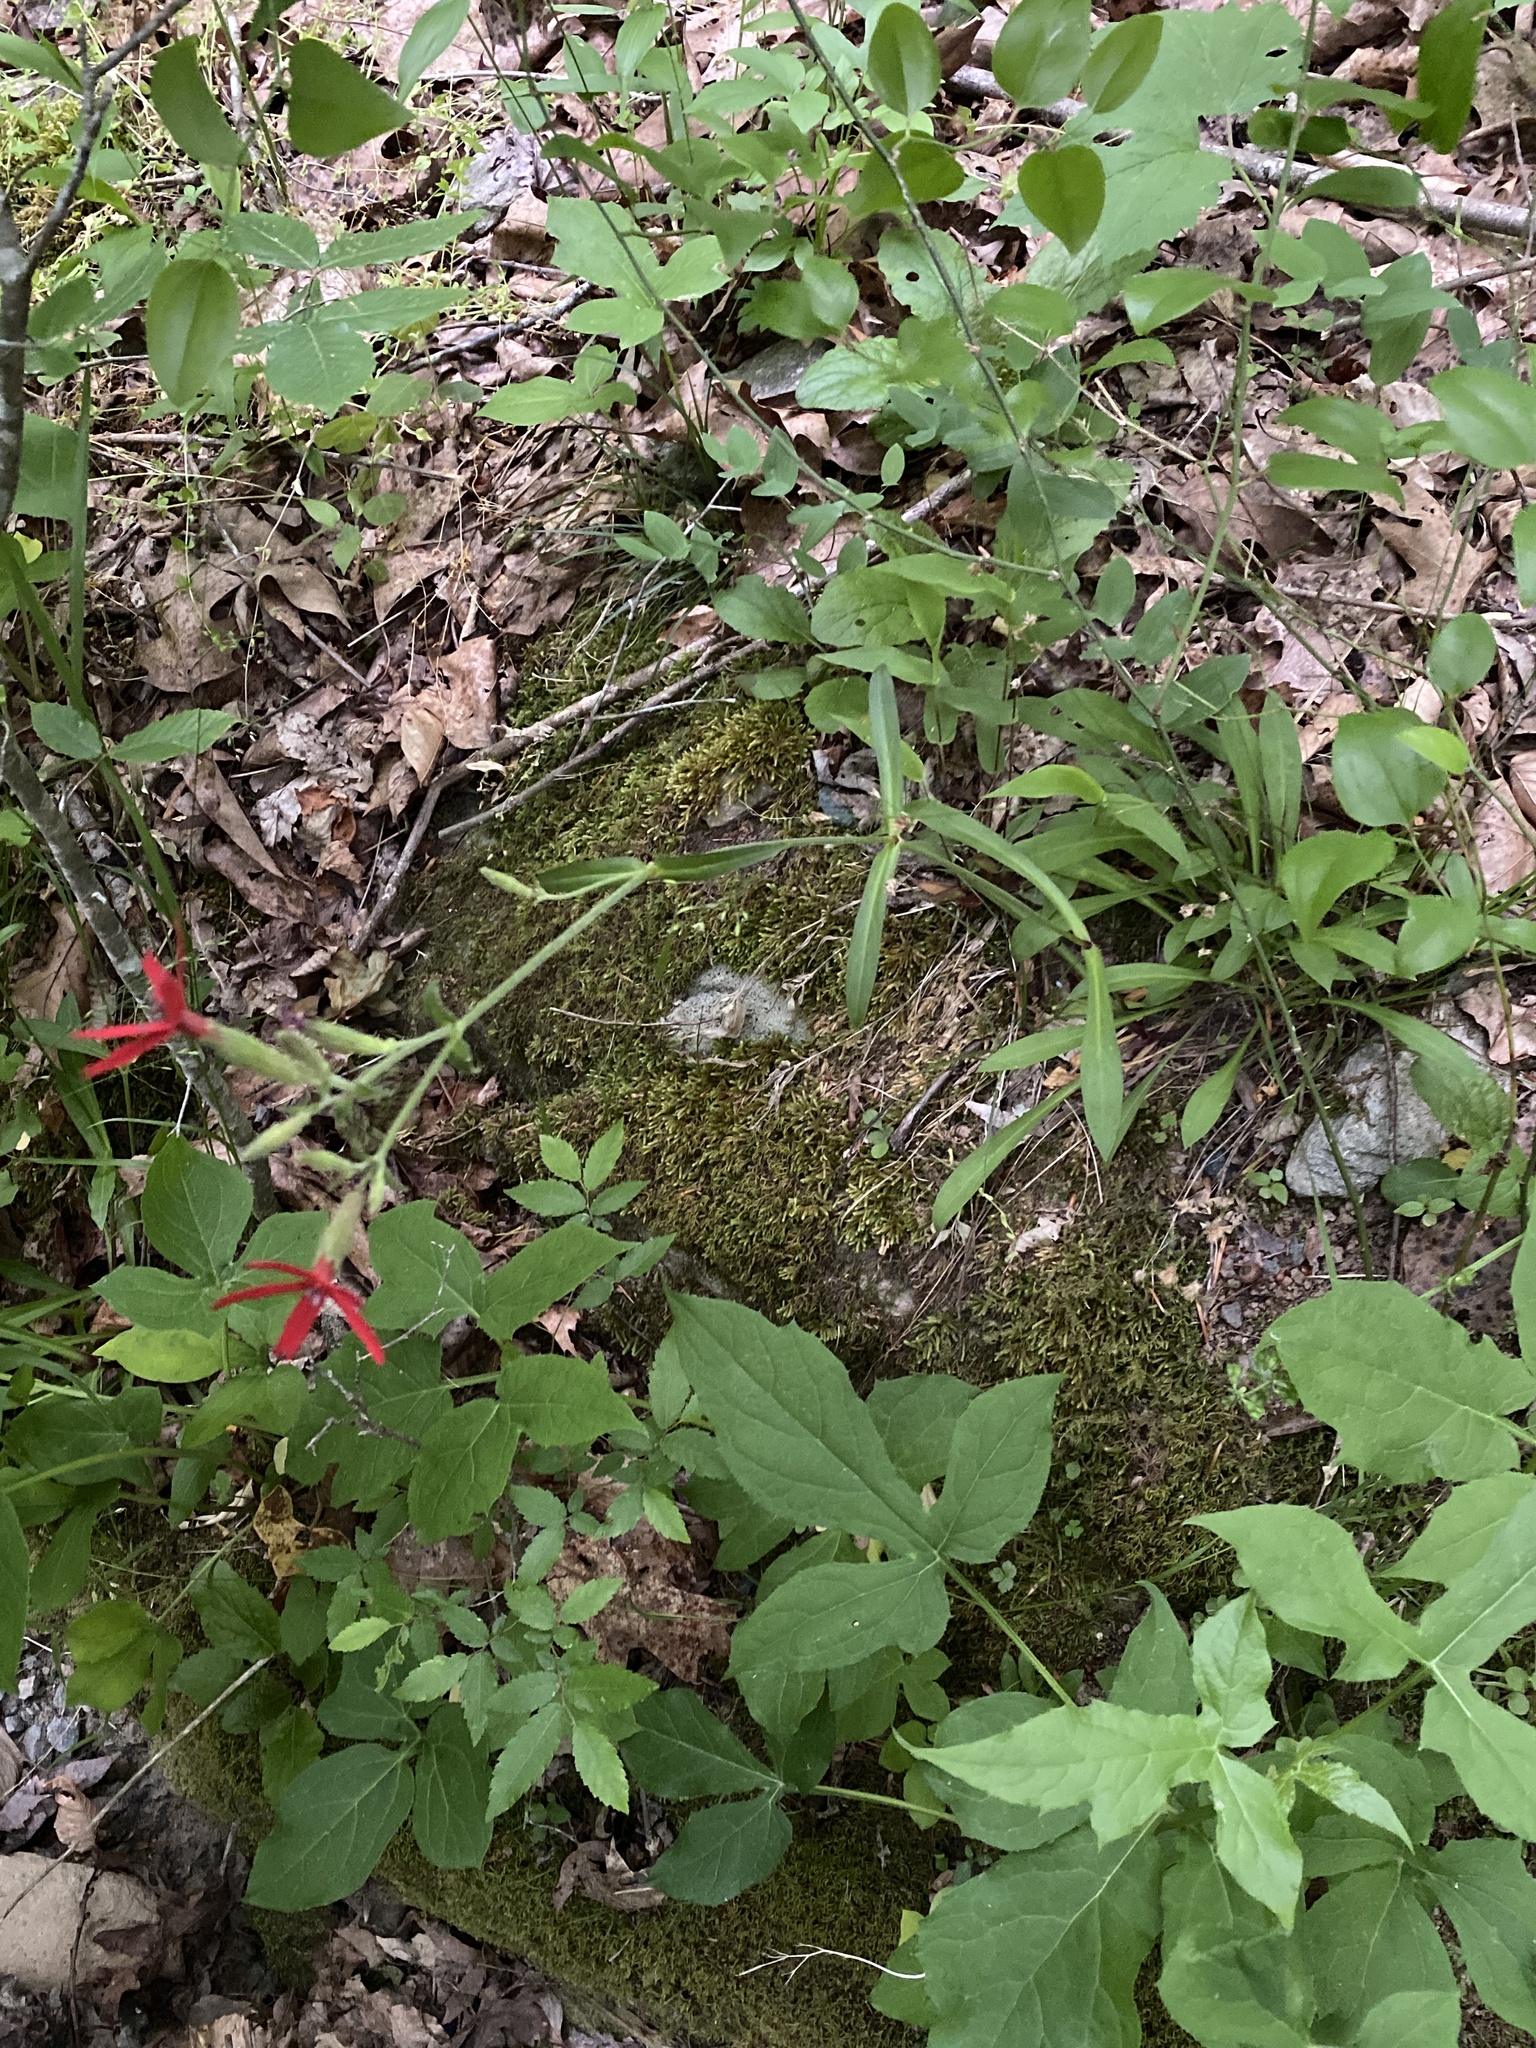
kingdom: Plantae
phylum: Tracheophyta
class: Magnoliopsida
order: Caryophyllales
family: Caryophyllaceae
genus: Silene
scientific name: Silene virginica
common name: Fire-pink
